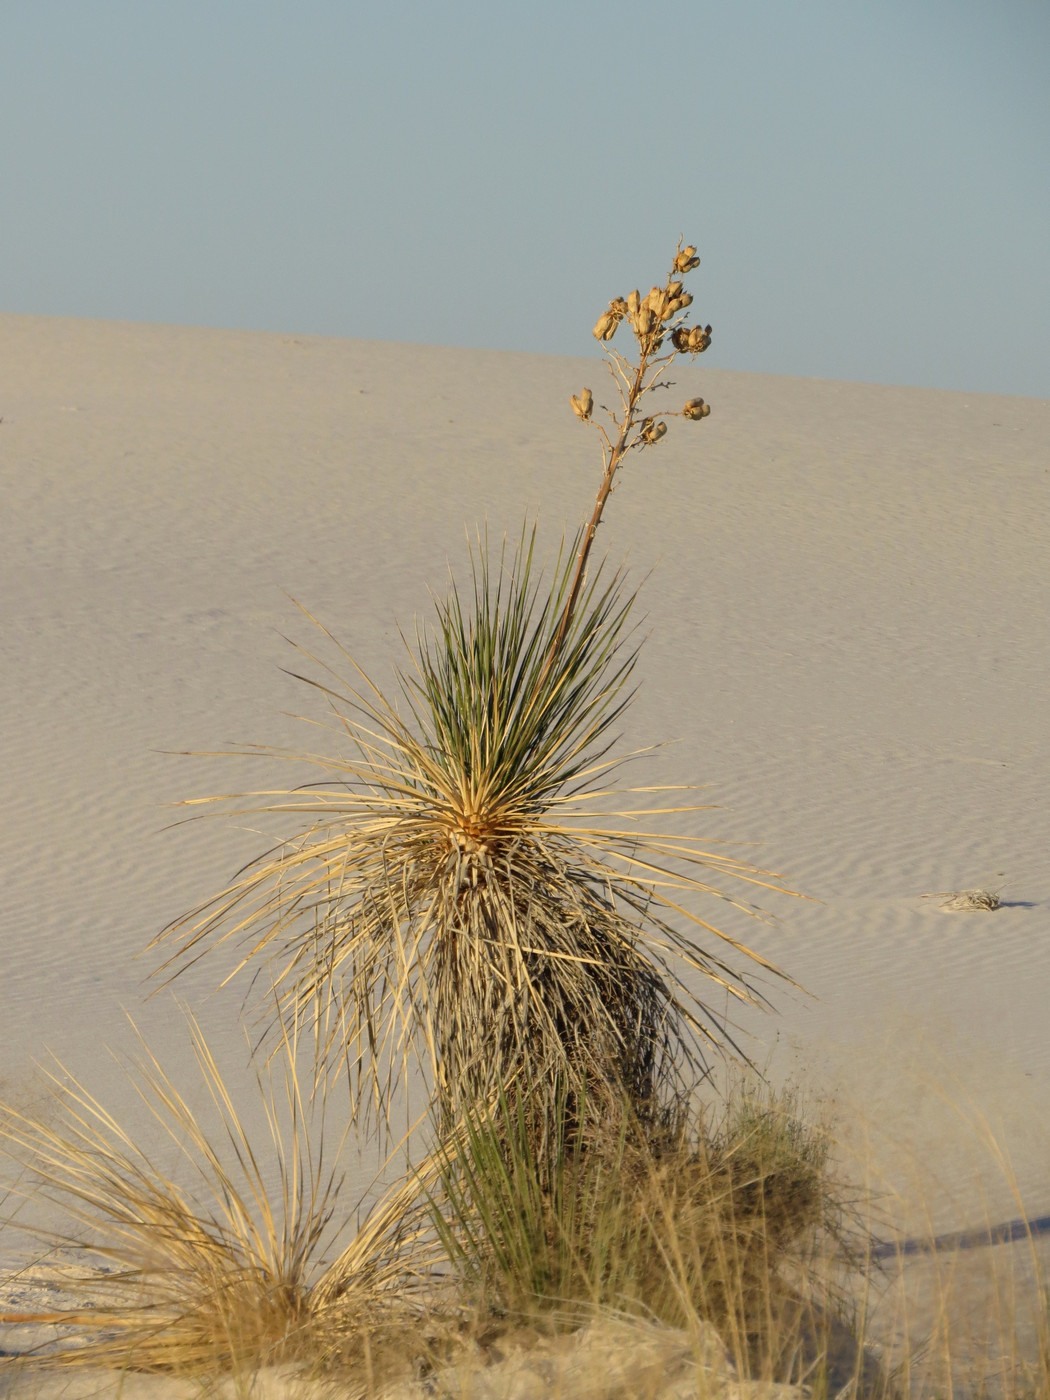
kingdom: Plantae
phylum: Tracheophyta
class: Liliopsida
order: Asparagales
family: Asparagaceae
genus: Yucca
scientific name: Yucca elata
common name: Palmella
